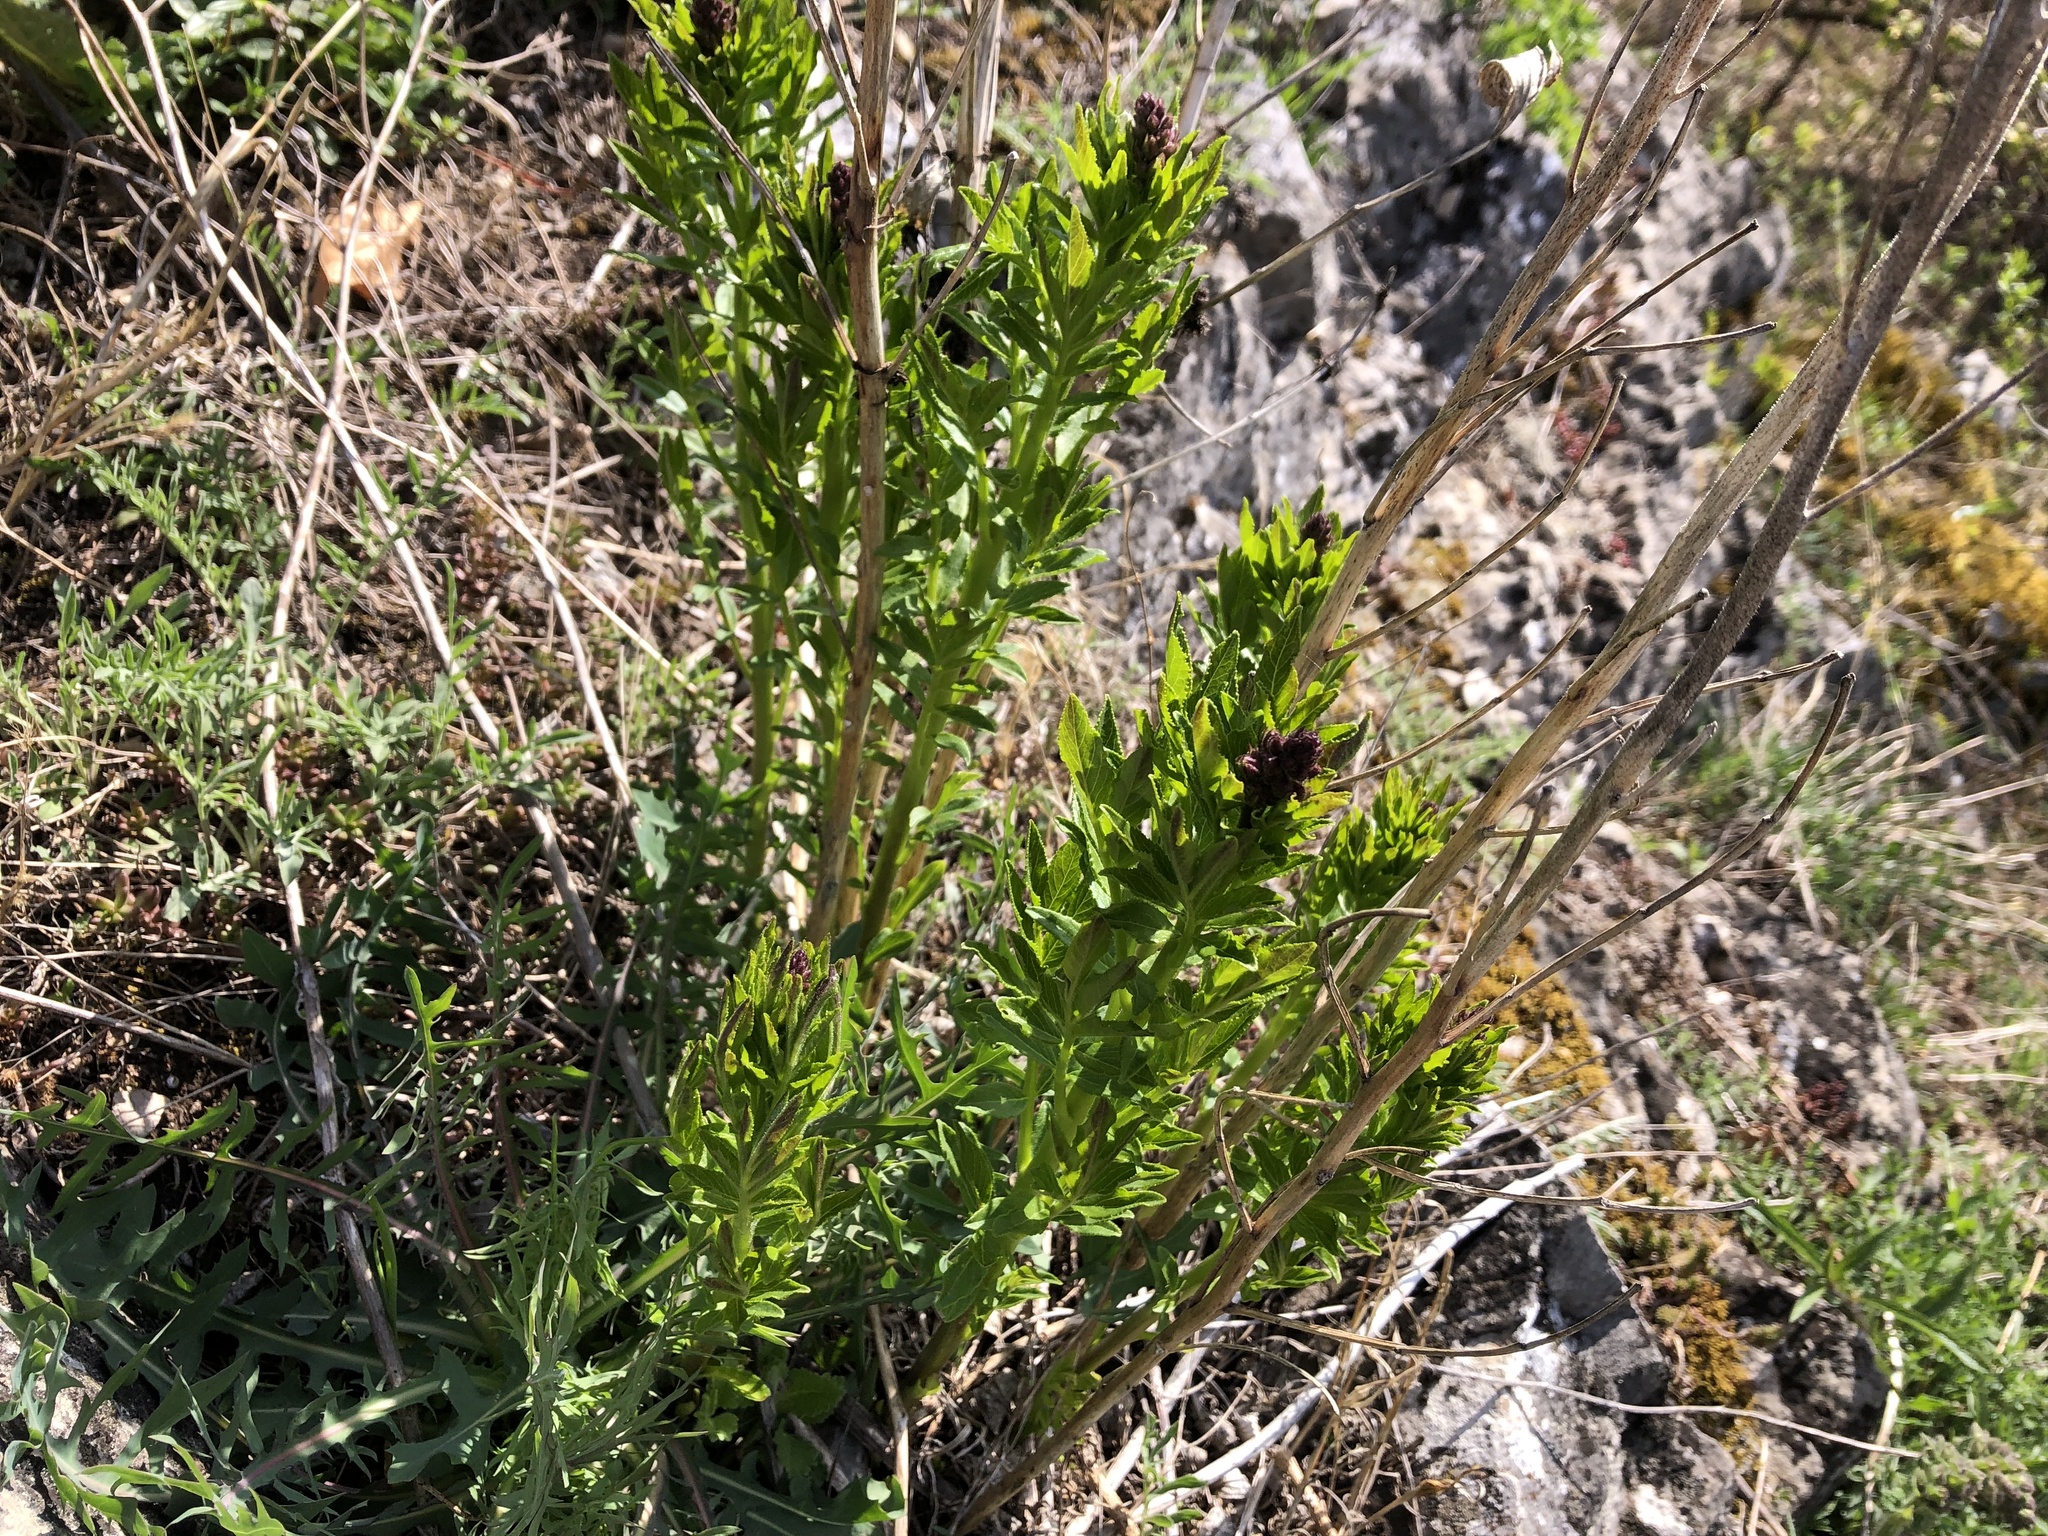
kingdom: Plantae
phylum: Tracheophyta
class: Magnoliopsida
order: Sapindales
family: Rutaceae
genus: Dictamnus
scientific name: Dictamnus albus
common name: Gasplant
